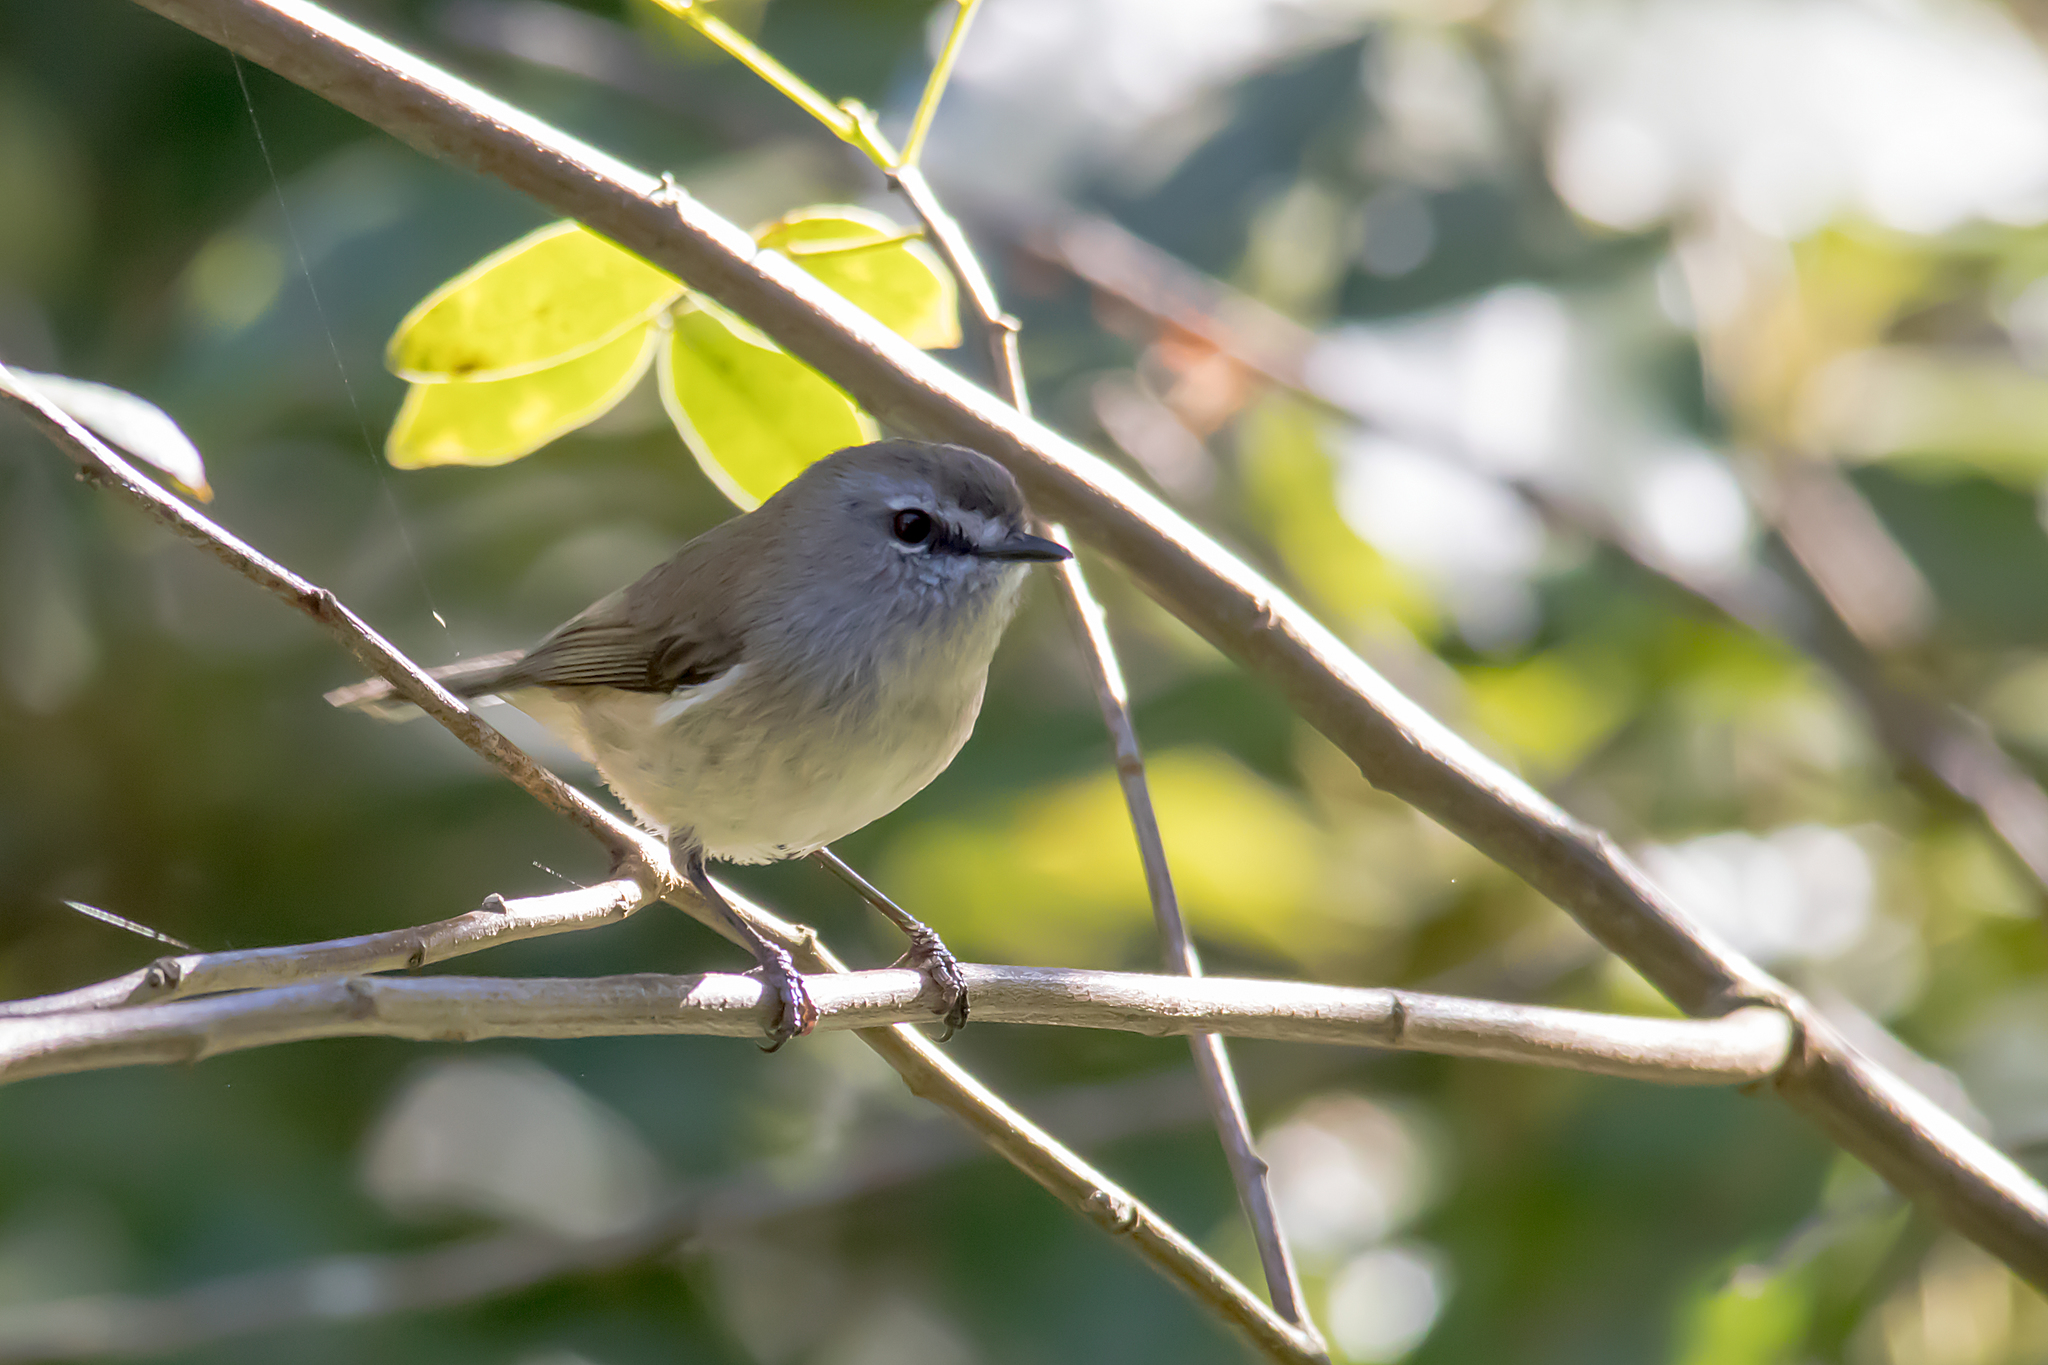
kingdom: Animalia
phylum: Chordata
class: Aves
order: Passeriformes
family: Acanthizidae
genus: Gerygone
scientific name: Gerygone mouki
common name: Brown gerygone
